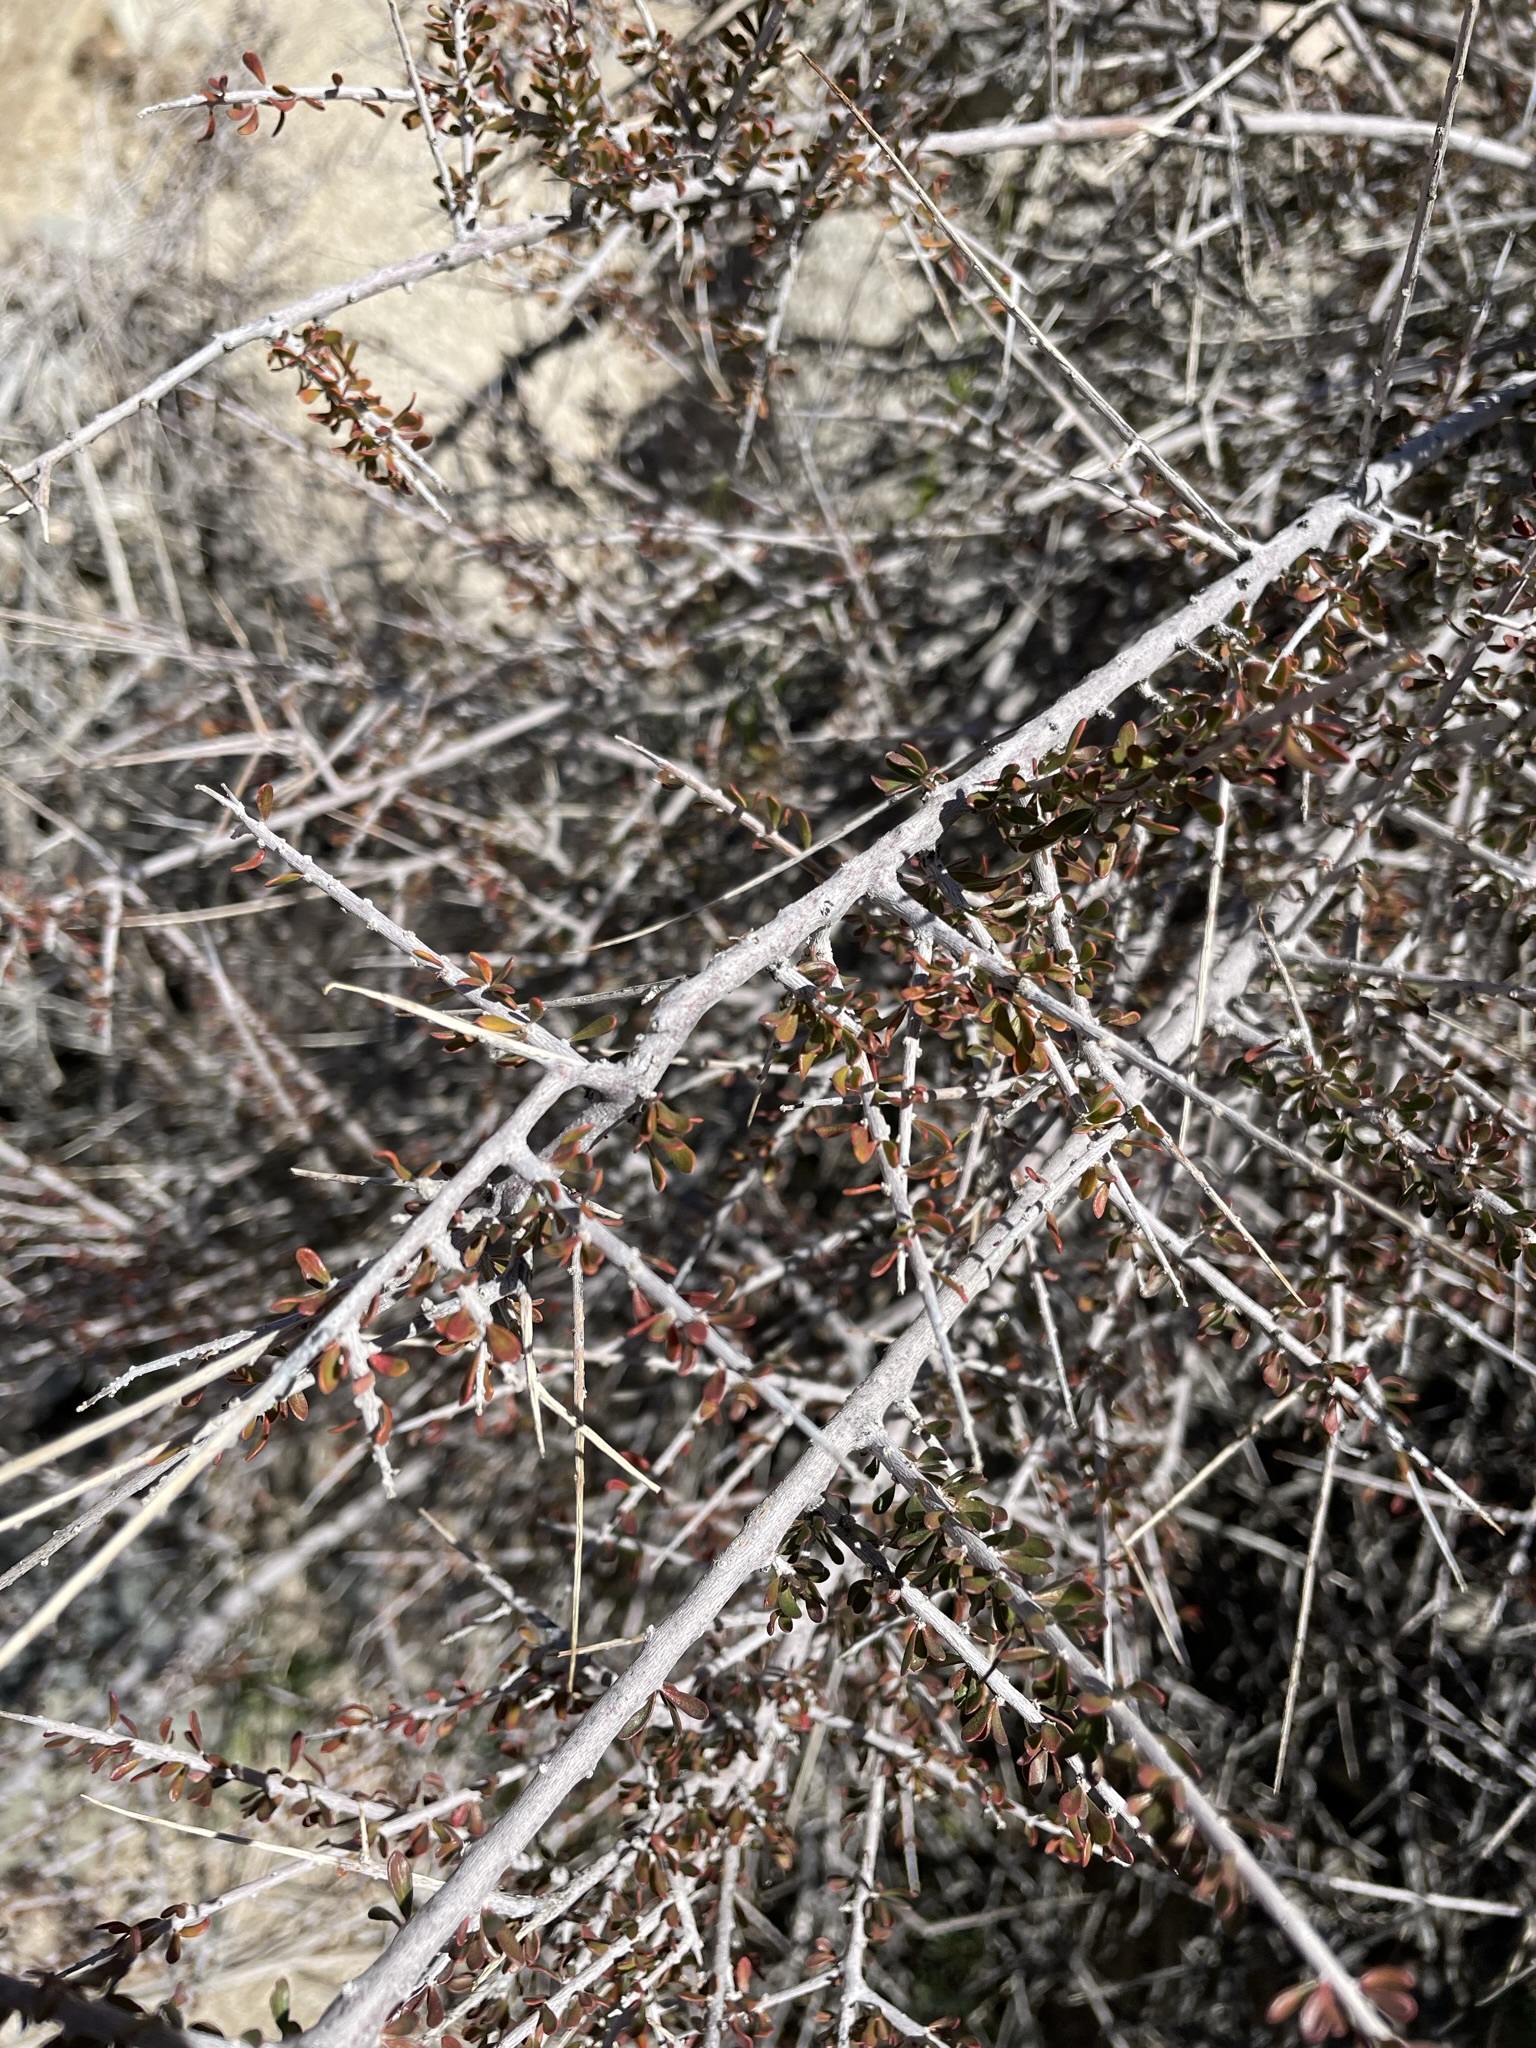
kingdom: Plantae
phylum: Tracheophyta
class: Magnoliopsida
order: Malpighiales
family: Picrodendraceae
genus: Tetracoccus
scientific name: Tetracoccus hallii
